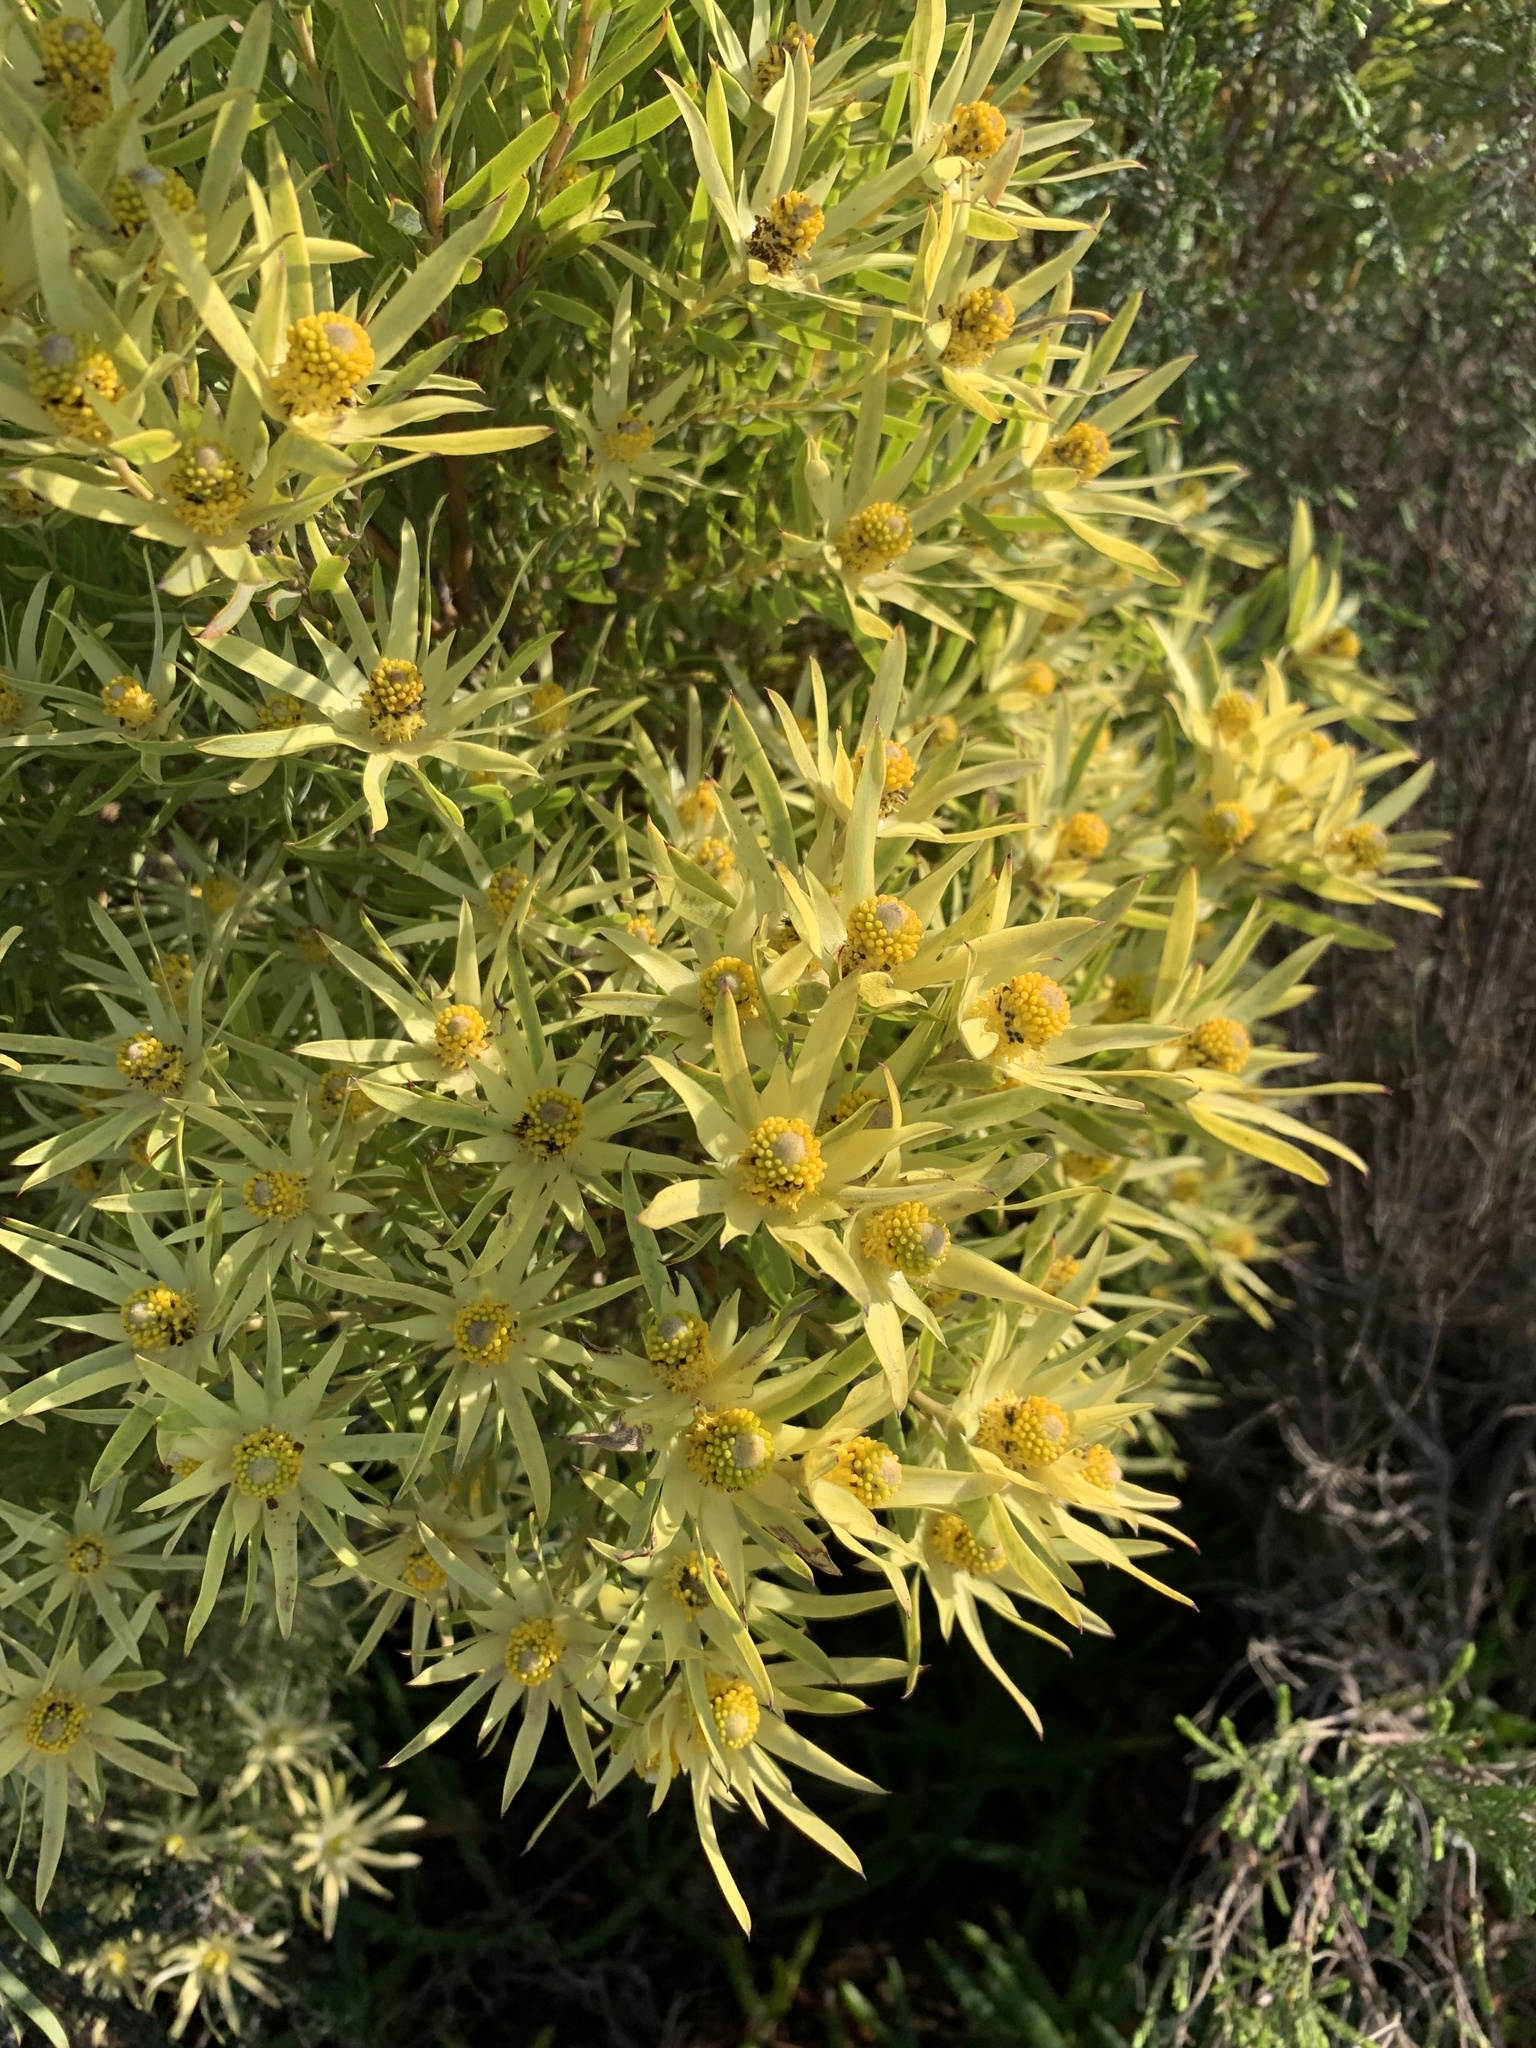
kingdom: Plantae
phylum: Tracheophyta
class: Magnoliopsida
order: Proteales
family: Proteaceae
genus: Leucadendron
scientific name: Leucadendron xanthoconus
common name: Sickle-leaf conebush
